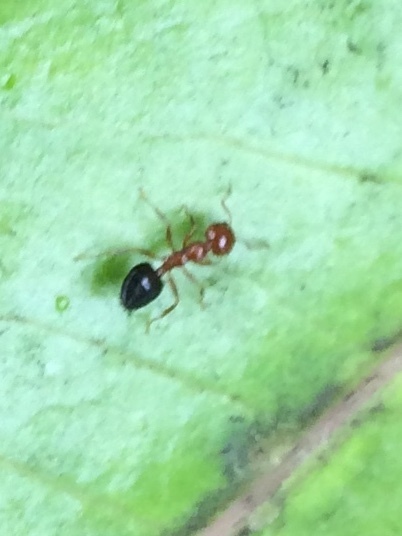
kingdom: Animalia
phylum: Arthropoda
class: Insecta
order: Hymenoptera
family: Formicidae
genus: Crematogaster
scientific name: Crematogaster
